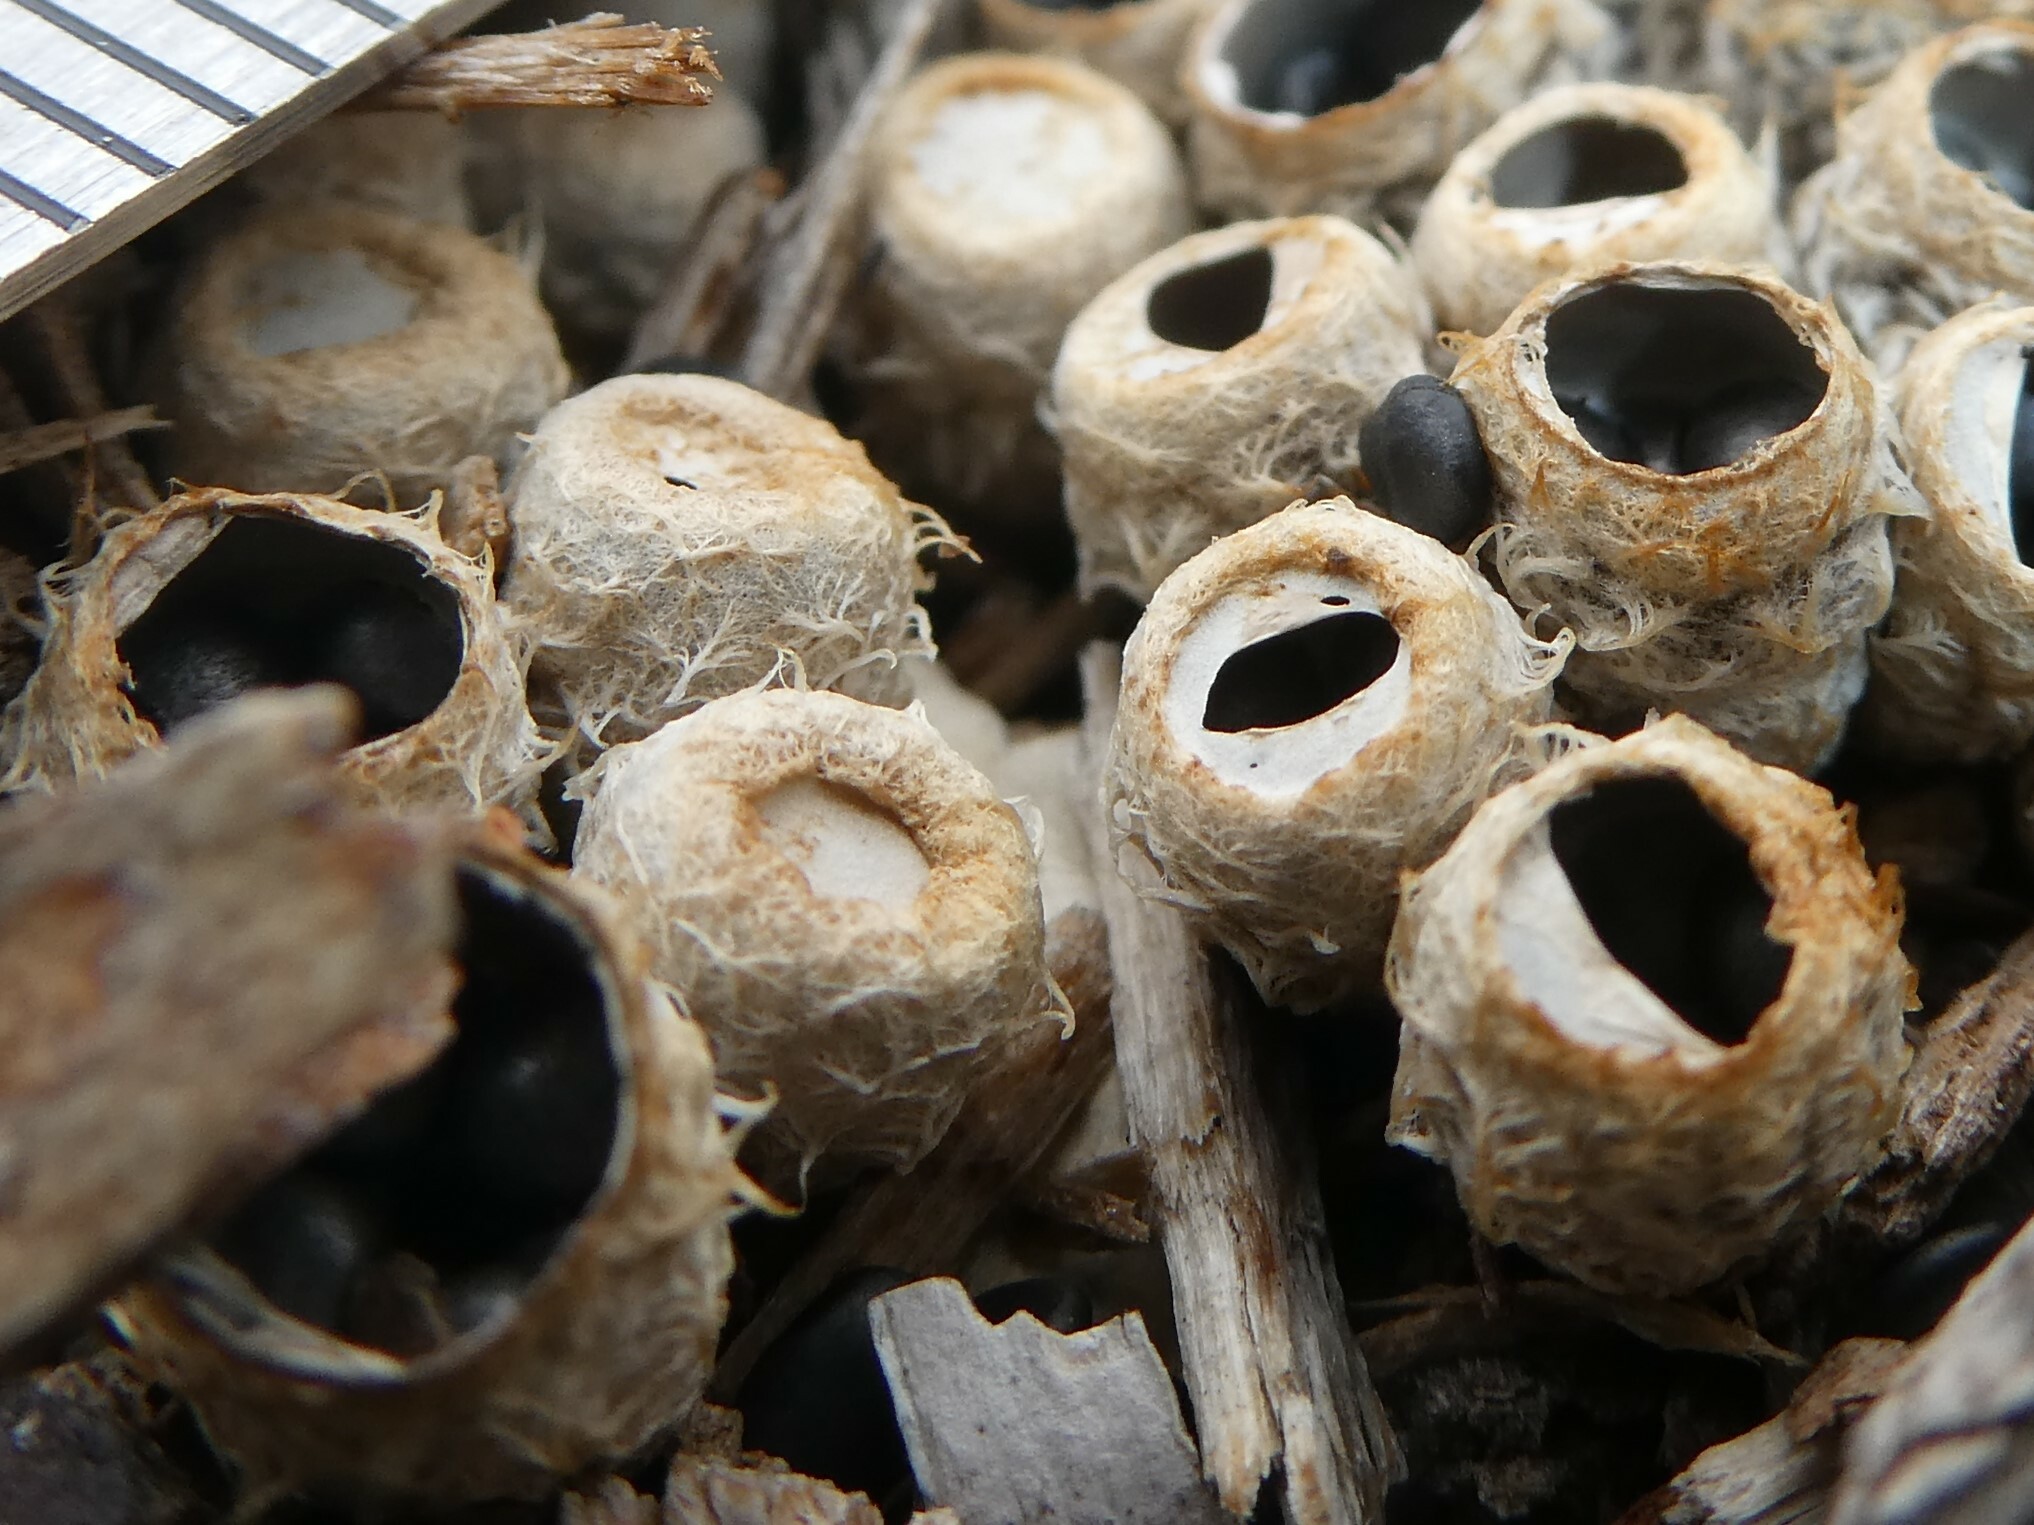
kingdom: Fungi
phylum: Basidiomycota
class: Agaricomycetes
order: Agaricales
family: Agaricaceae
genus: Cyathus
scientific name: Cyathus stercoreus
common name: Dung bird's nest
